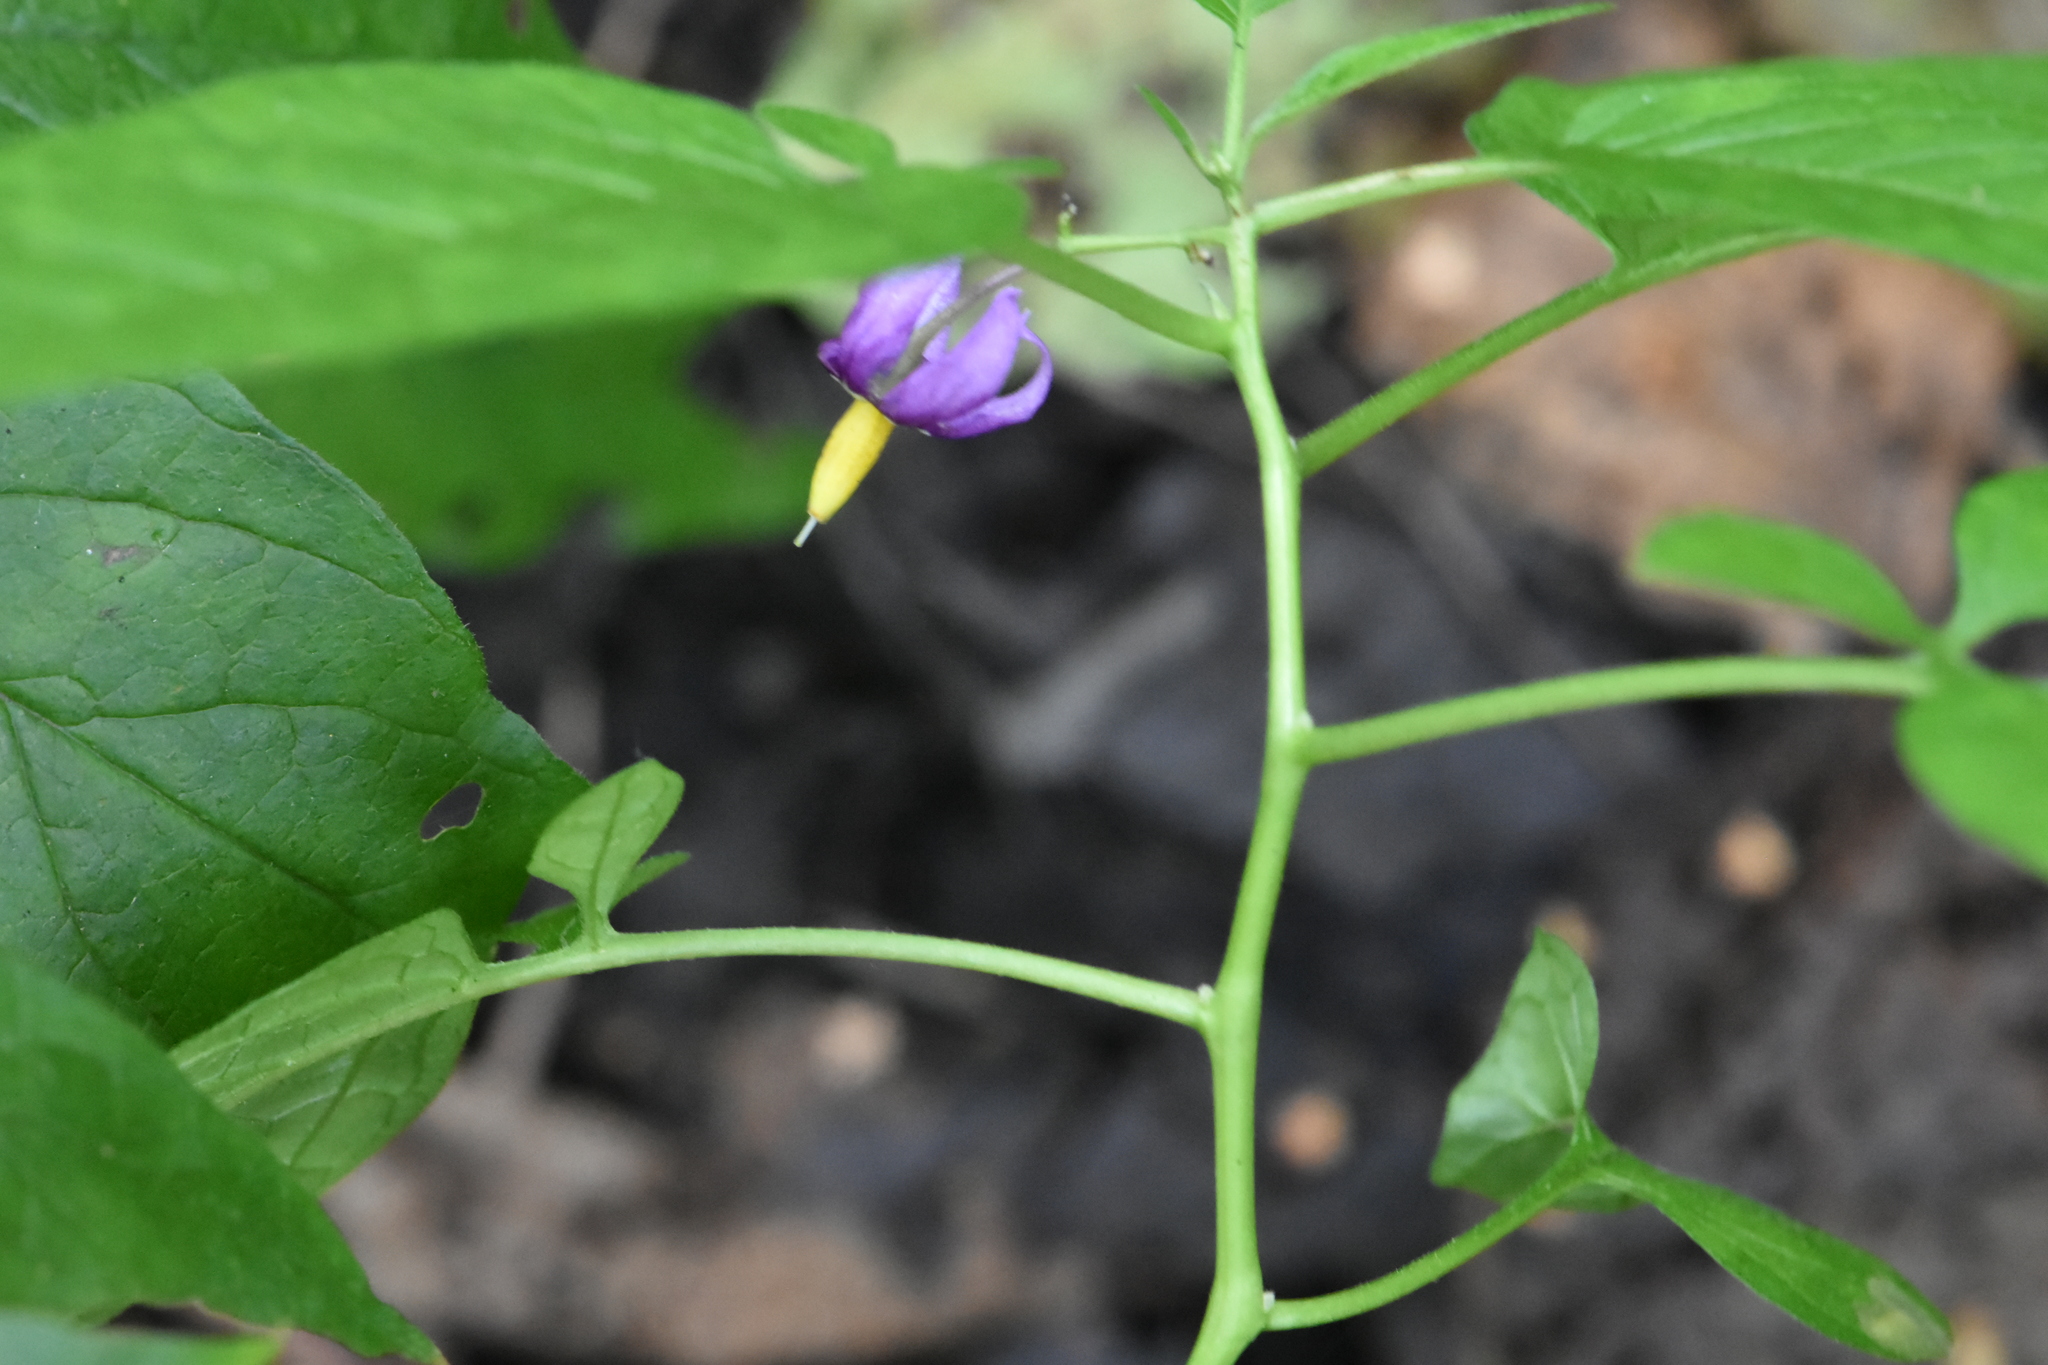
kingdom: Plantae
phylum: Tracheophyta
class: Magnoliopsida
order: Solanales
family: Solanaceae
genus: Solanum
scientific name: Solanum dulcamara
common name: Climbing nightshade
